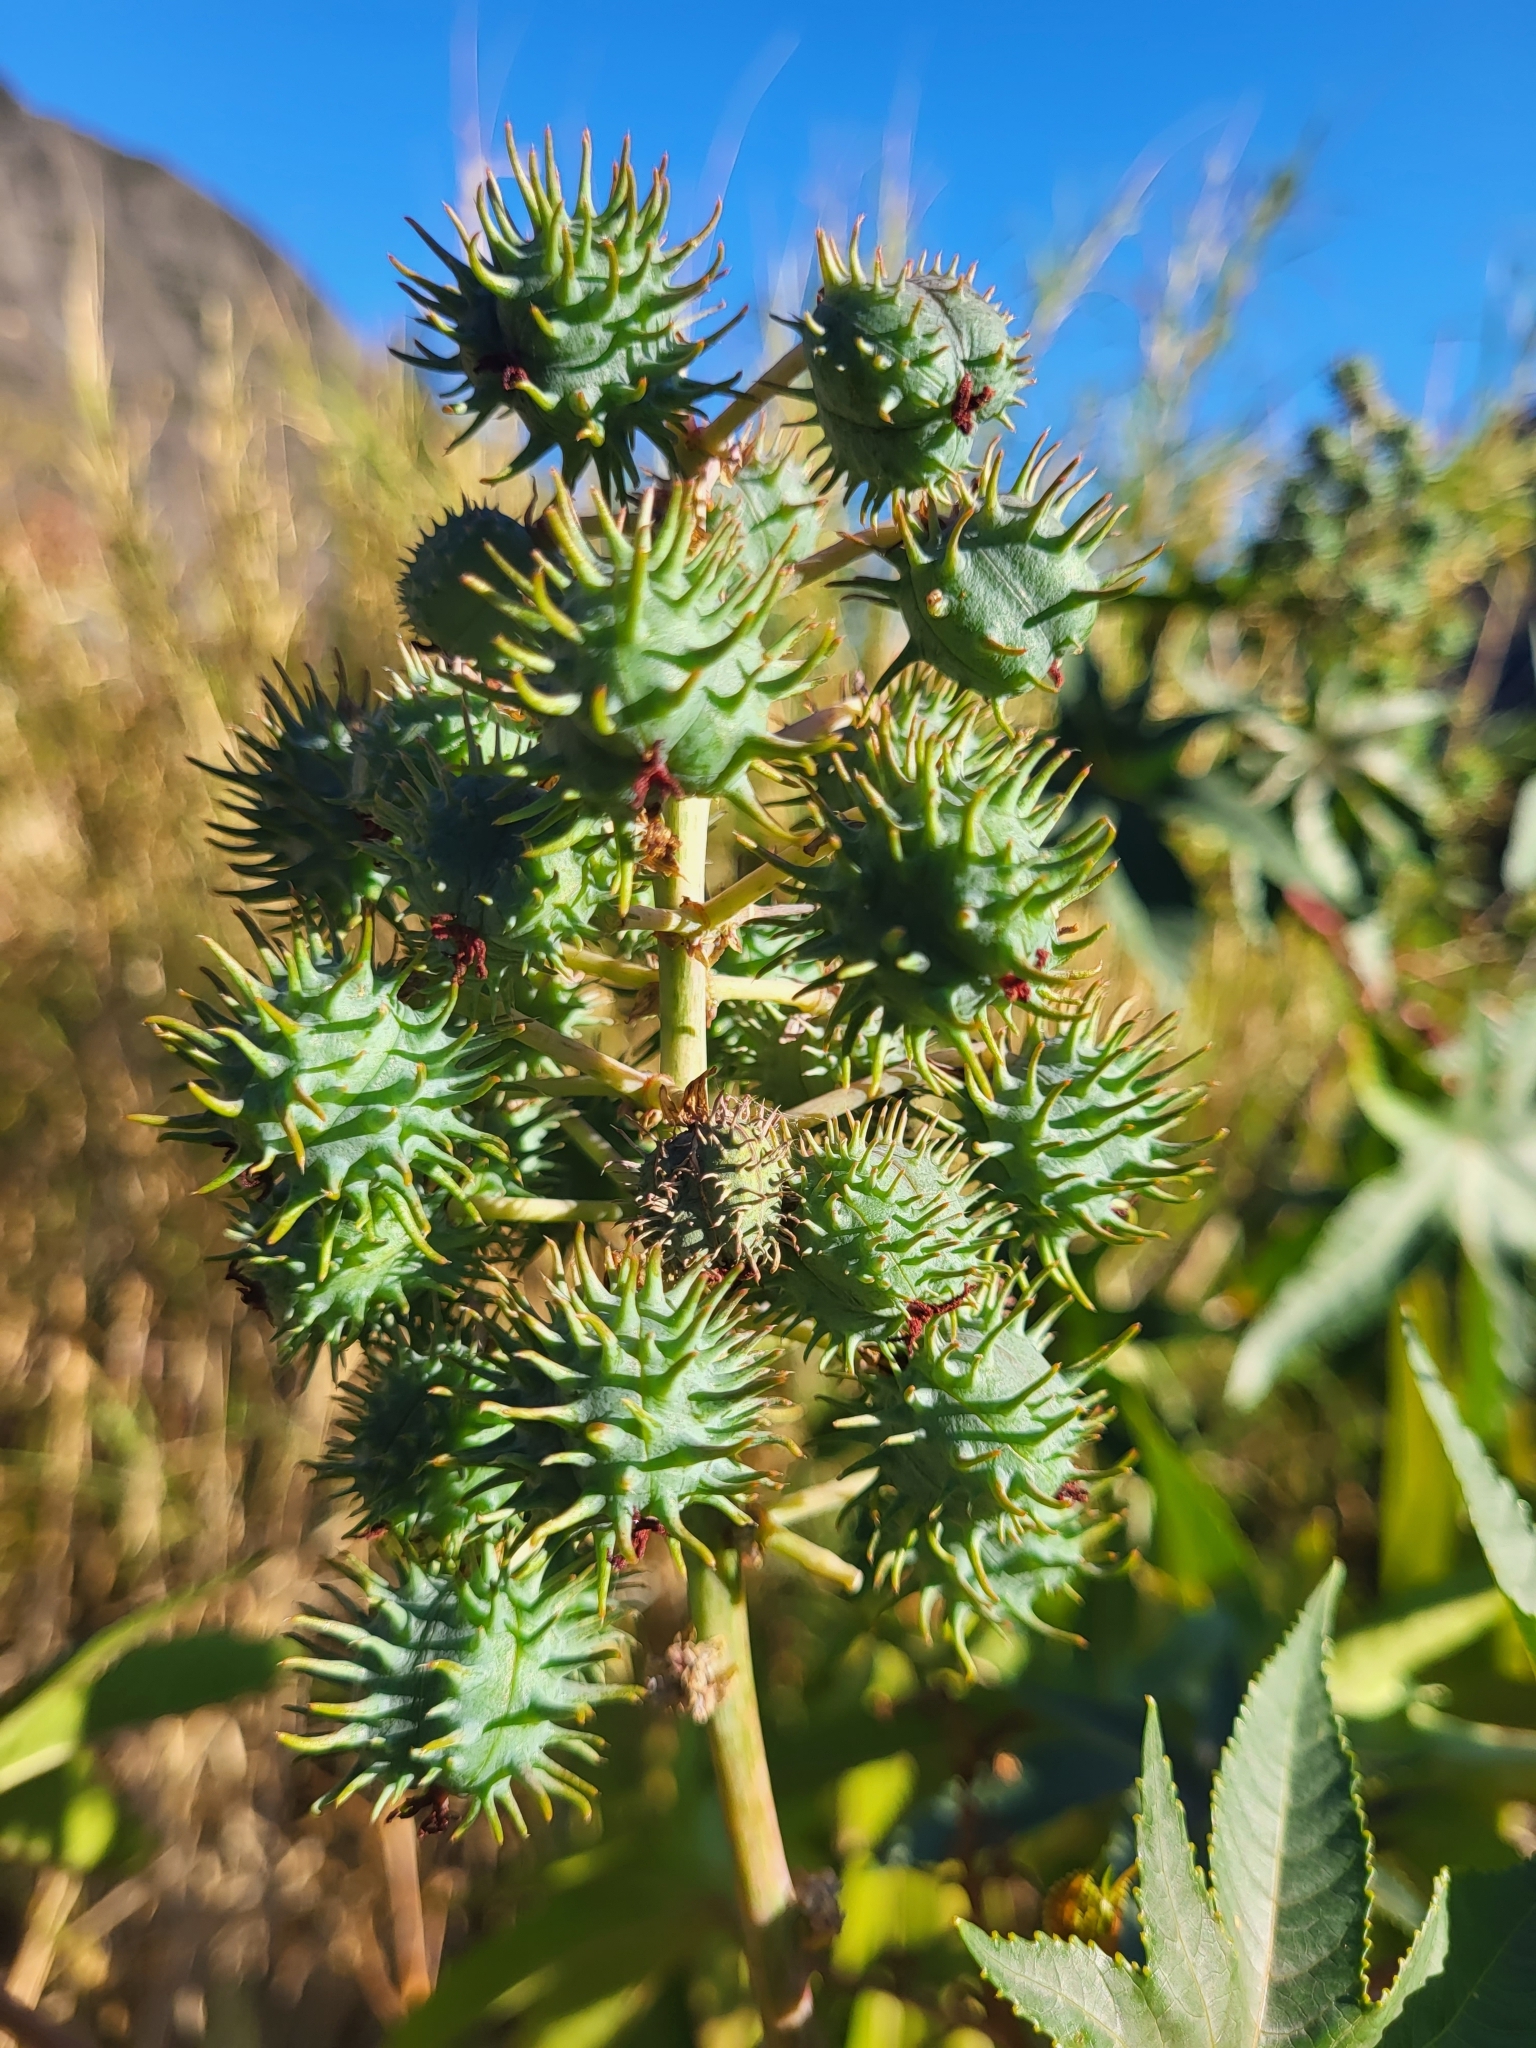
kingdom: Plantae
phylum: Tracheophyta
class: Magnoliopsida
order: Malpighiales
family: Euphorbiaceae
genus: Ricinus
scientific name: Ricinus communis
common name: Castor-oil-plant
